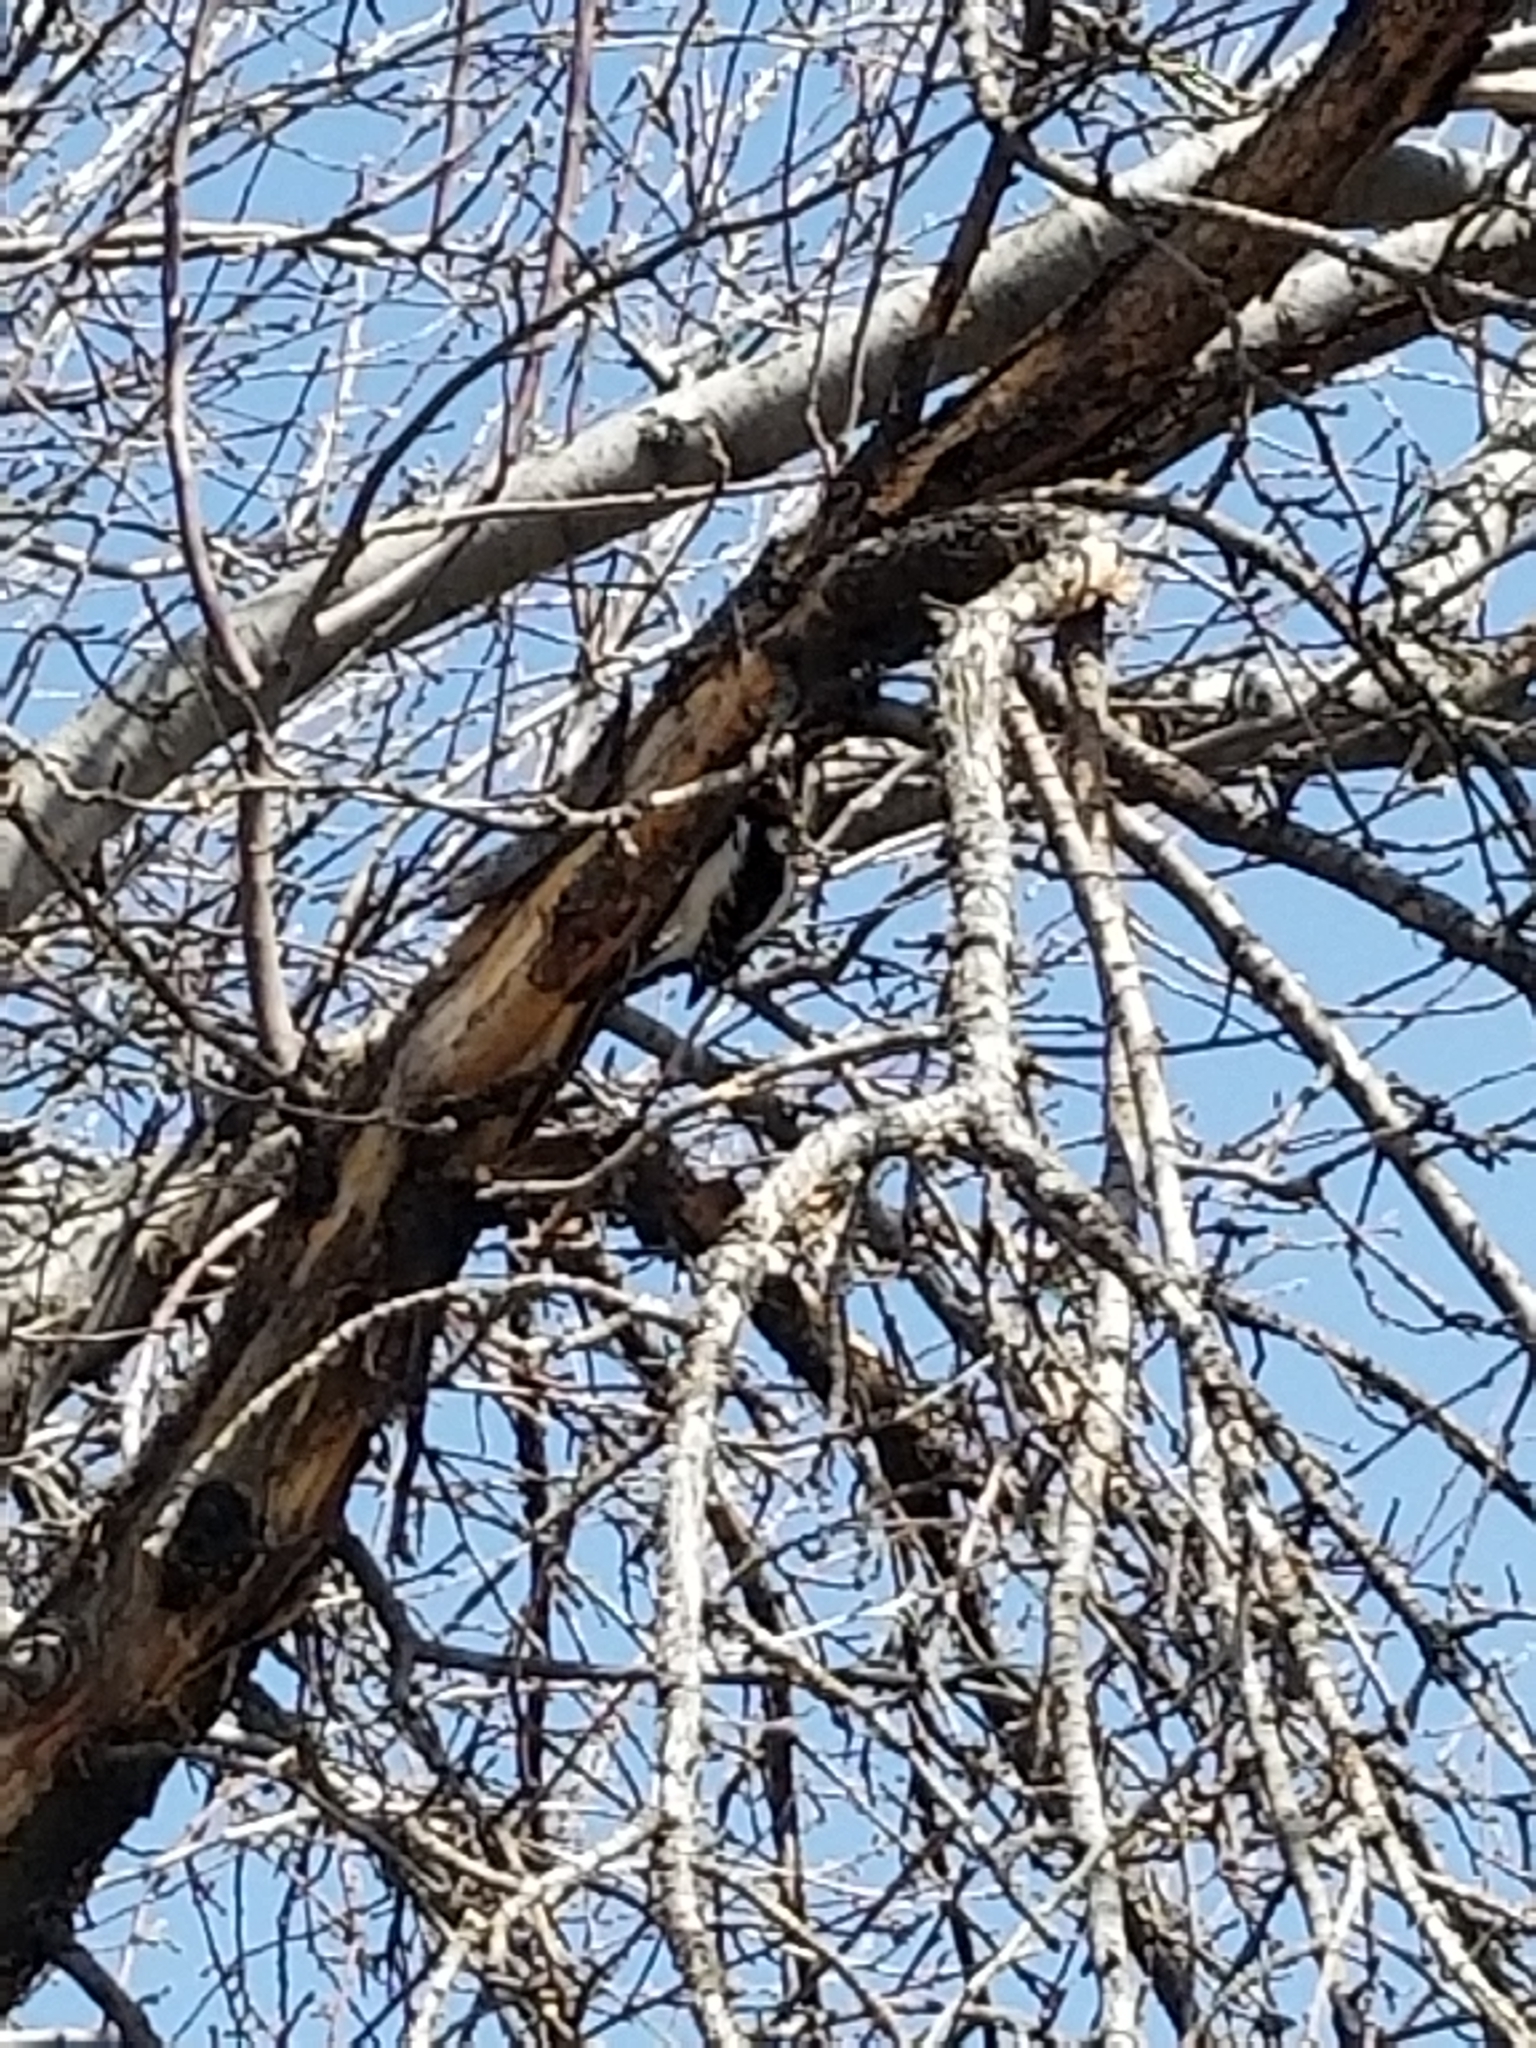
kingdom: Animalia
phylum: Chordata
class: Aves
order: Piciformes
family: Picidae
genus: Dryobates
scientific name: Dryobates pubescens
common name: Downy woodpecker
